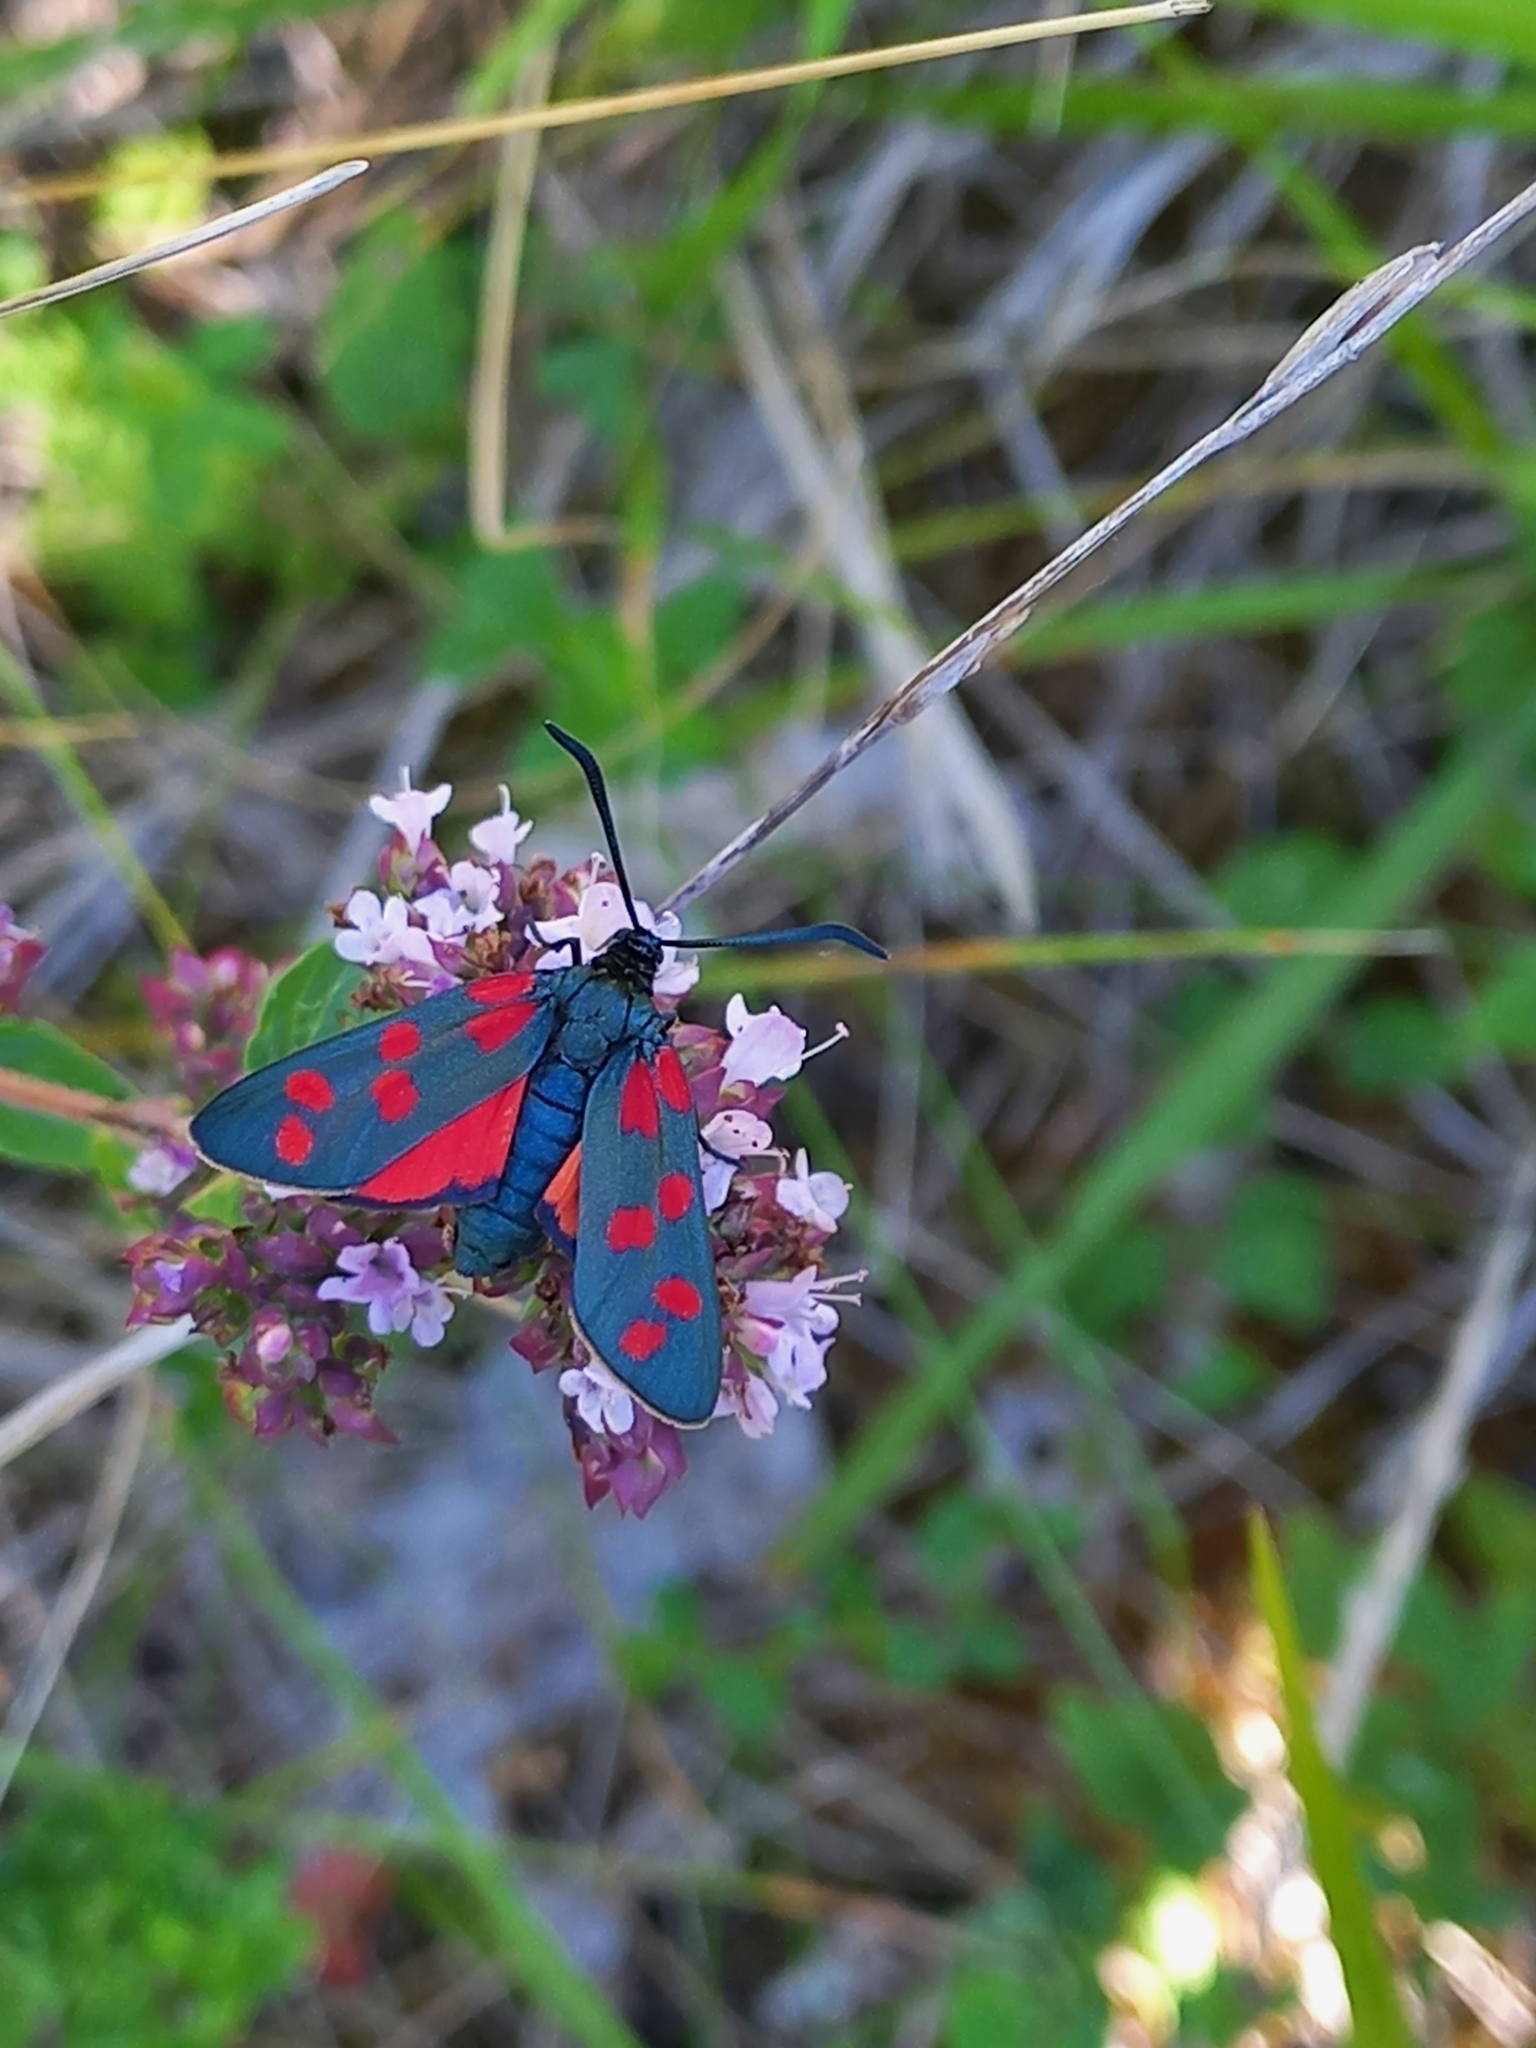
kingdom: Animalia
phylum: Arthropoda
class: Insecta
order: Lepidoptera
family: Zygaenidae
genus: Zygaena
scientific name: Zygaena transalpina
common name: Southern six spot burnet
